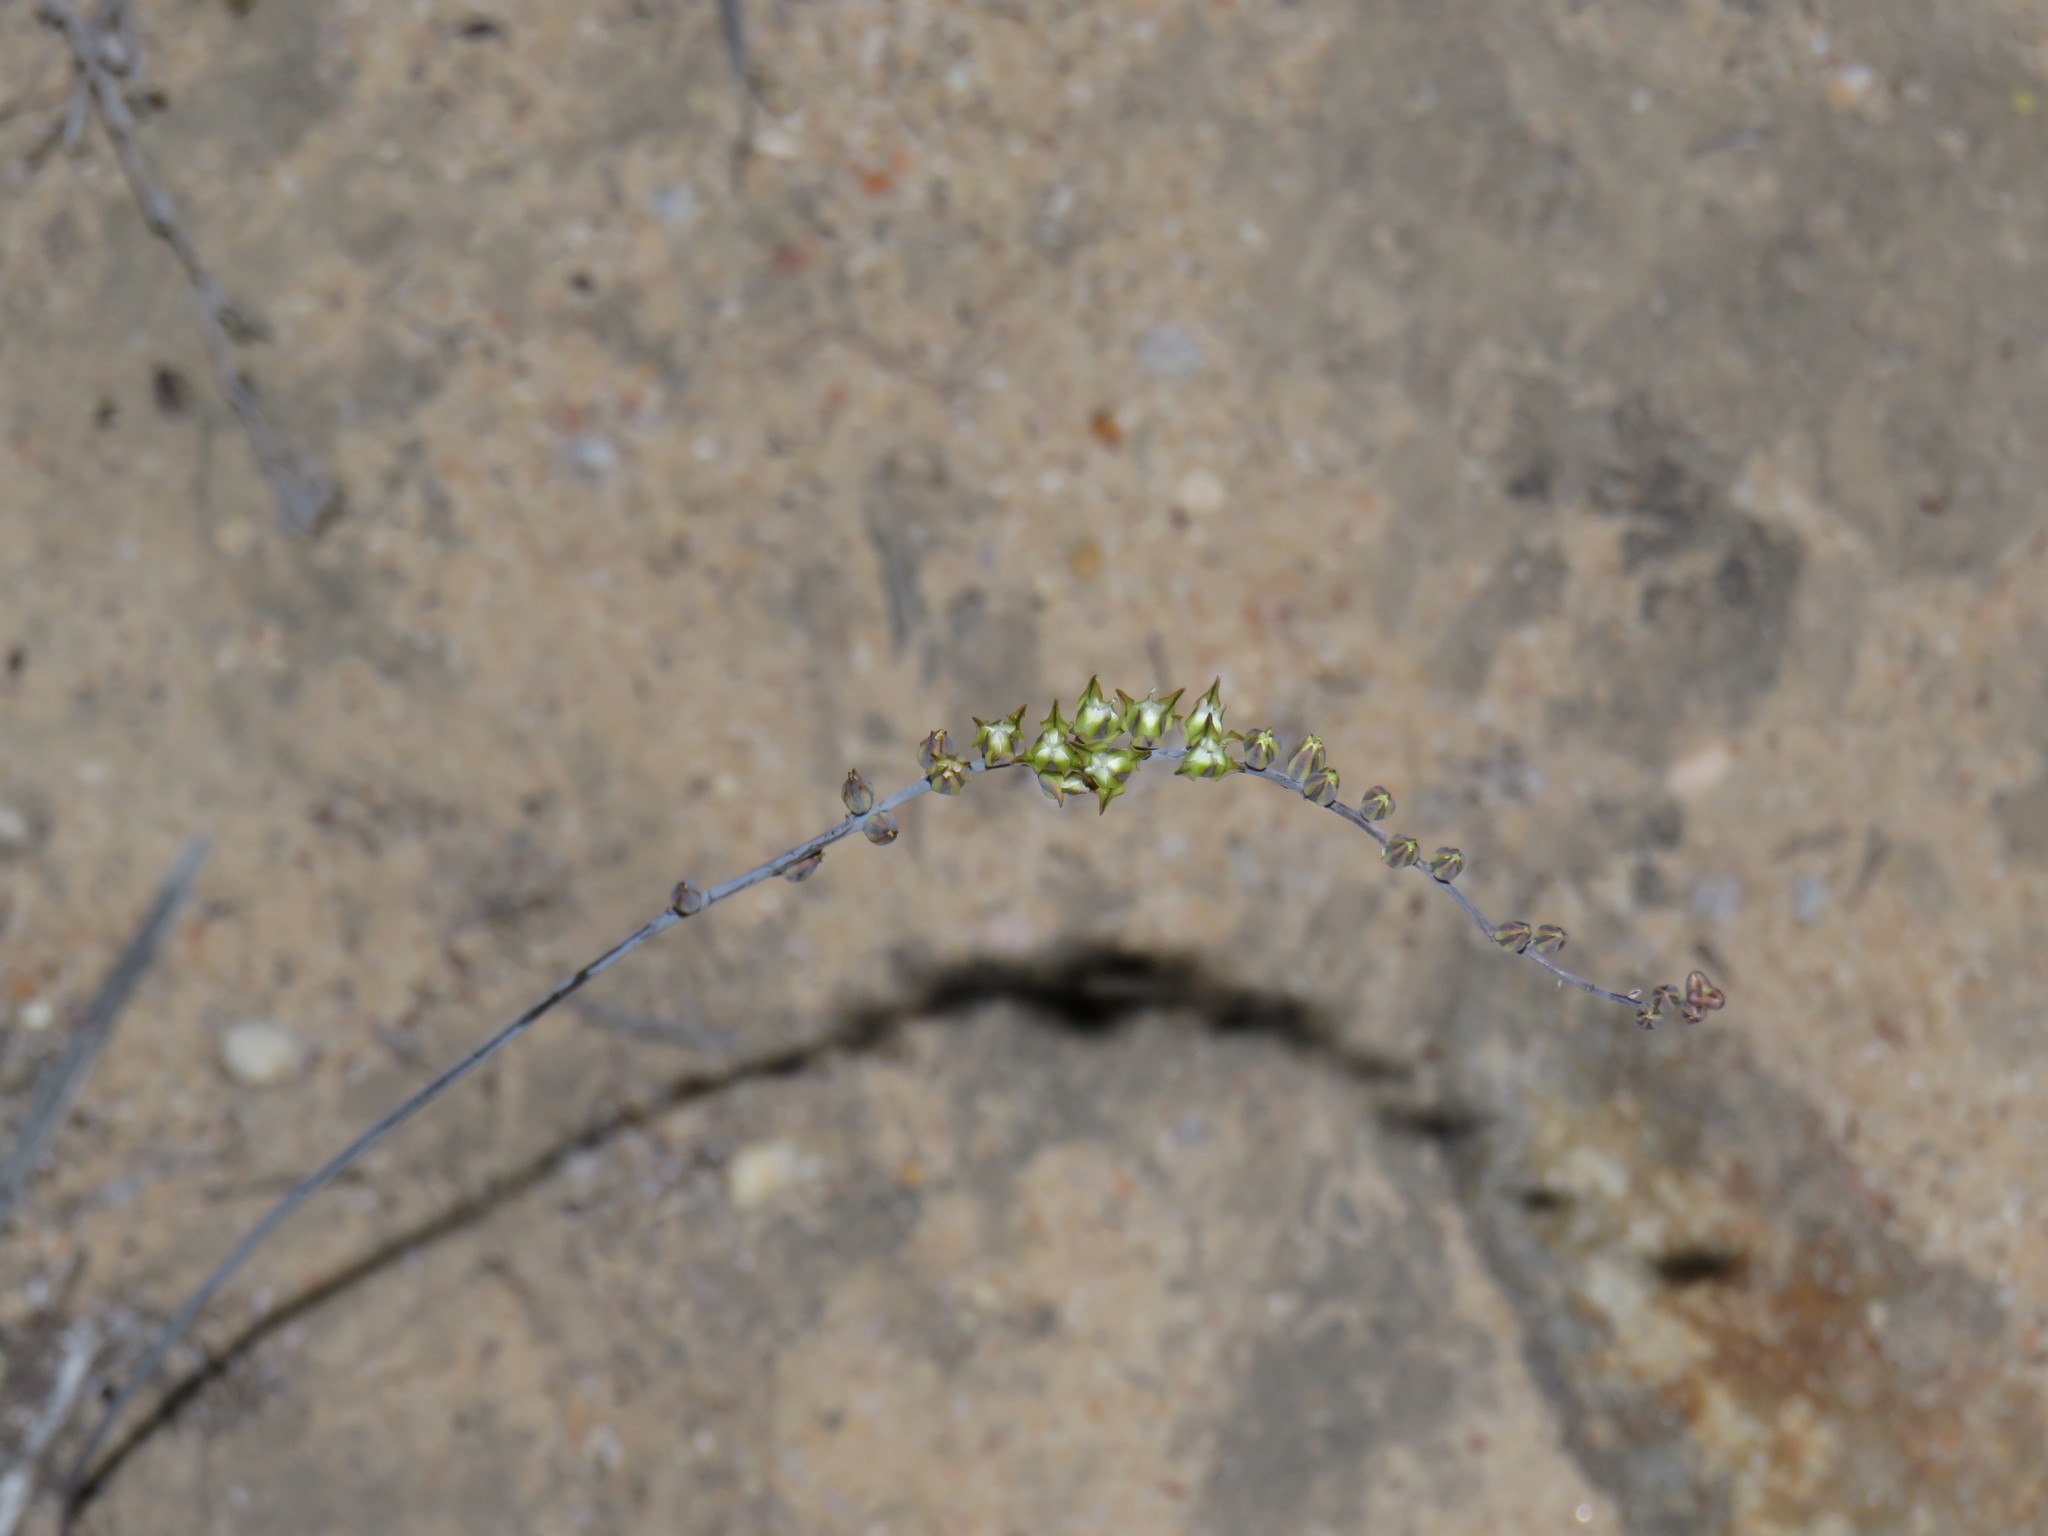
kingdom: Plantae
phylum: Tracheophyta
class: Liliopsida
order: Asparagales
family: Asparagaceae
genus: Eriospermum
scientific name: Eriospermum lanceifolium
